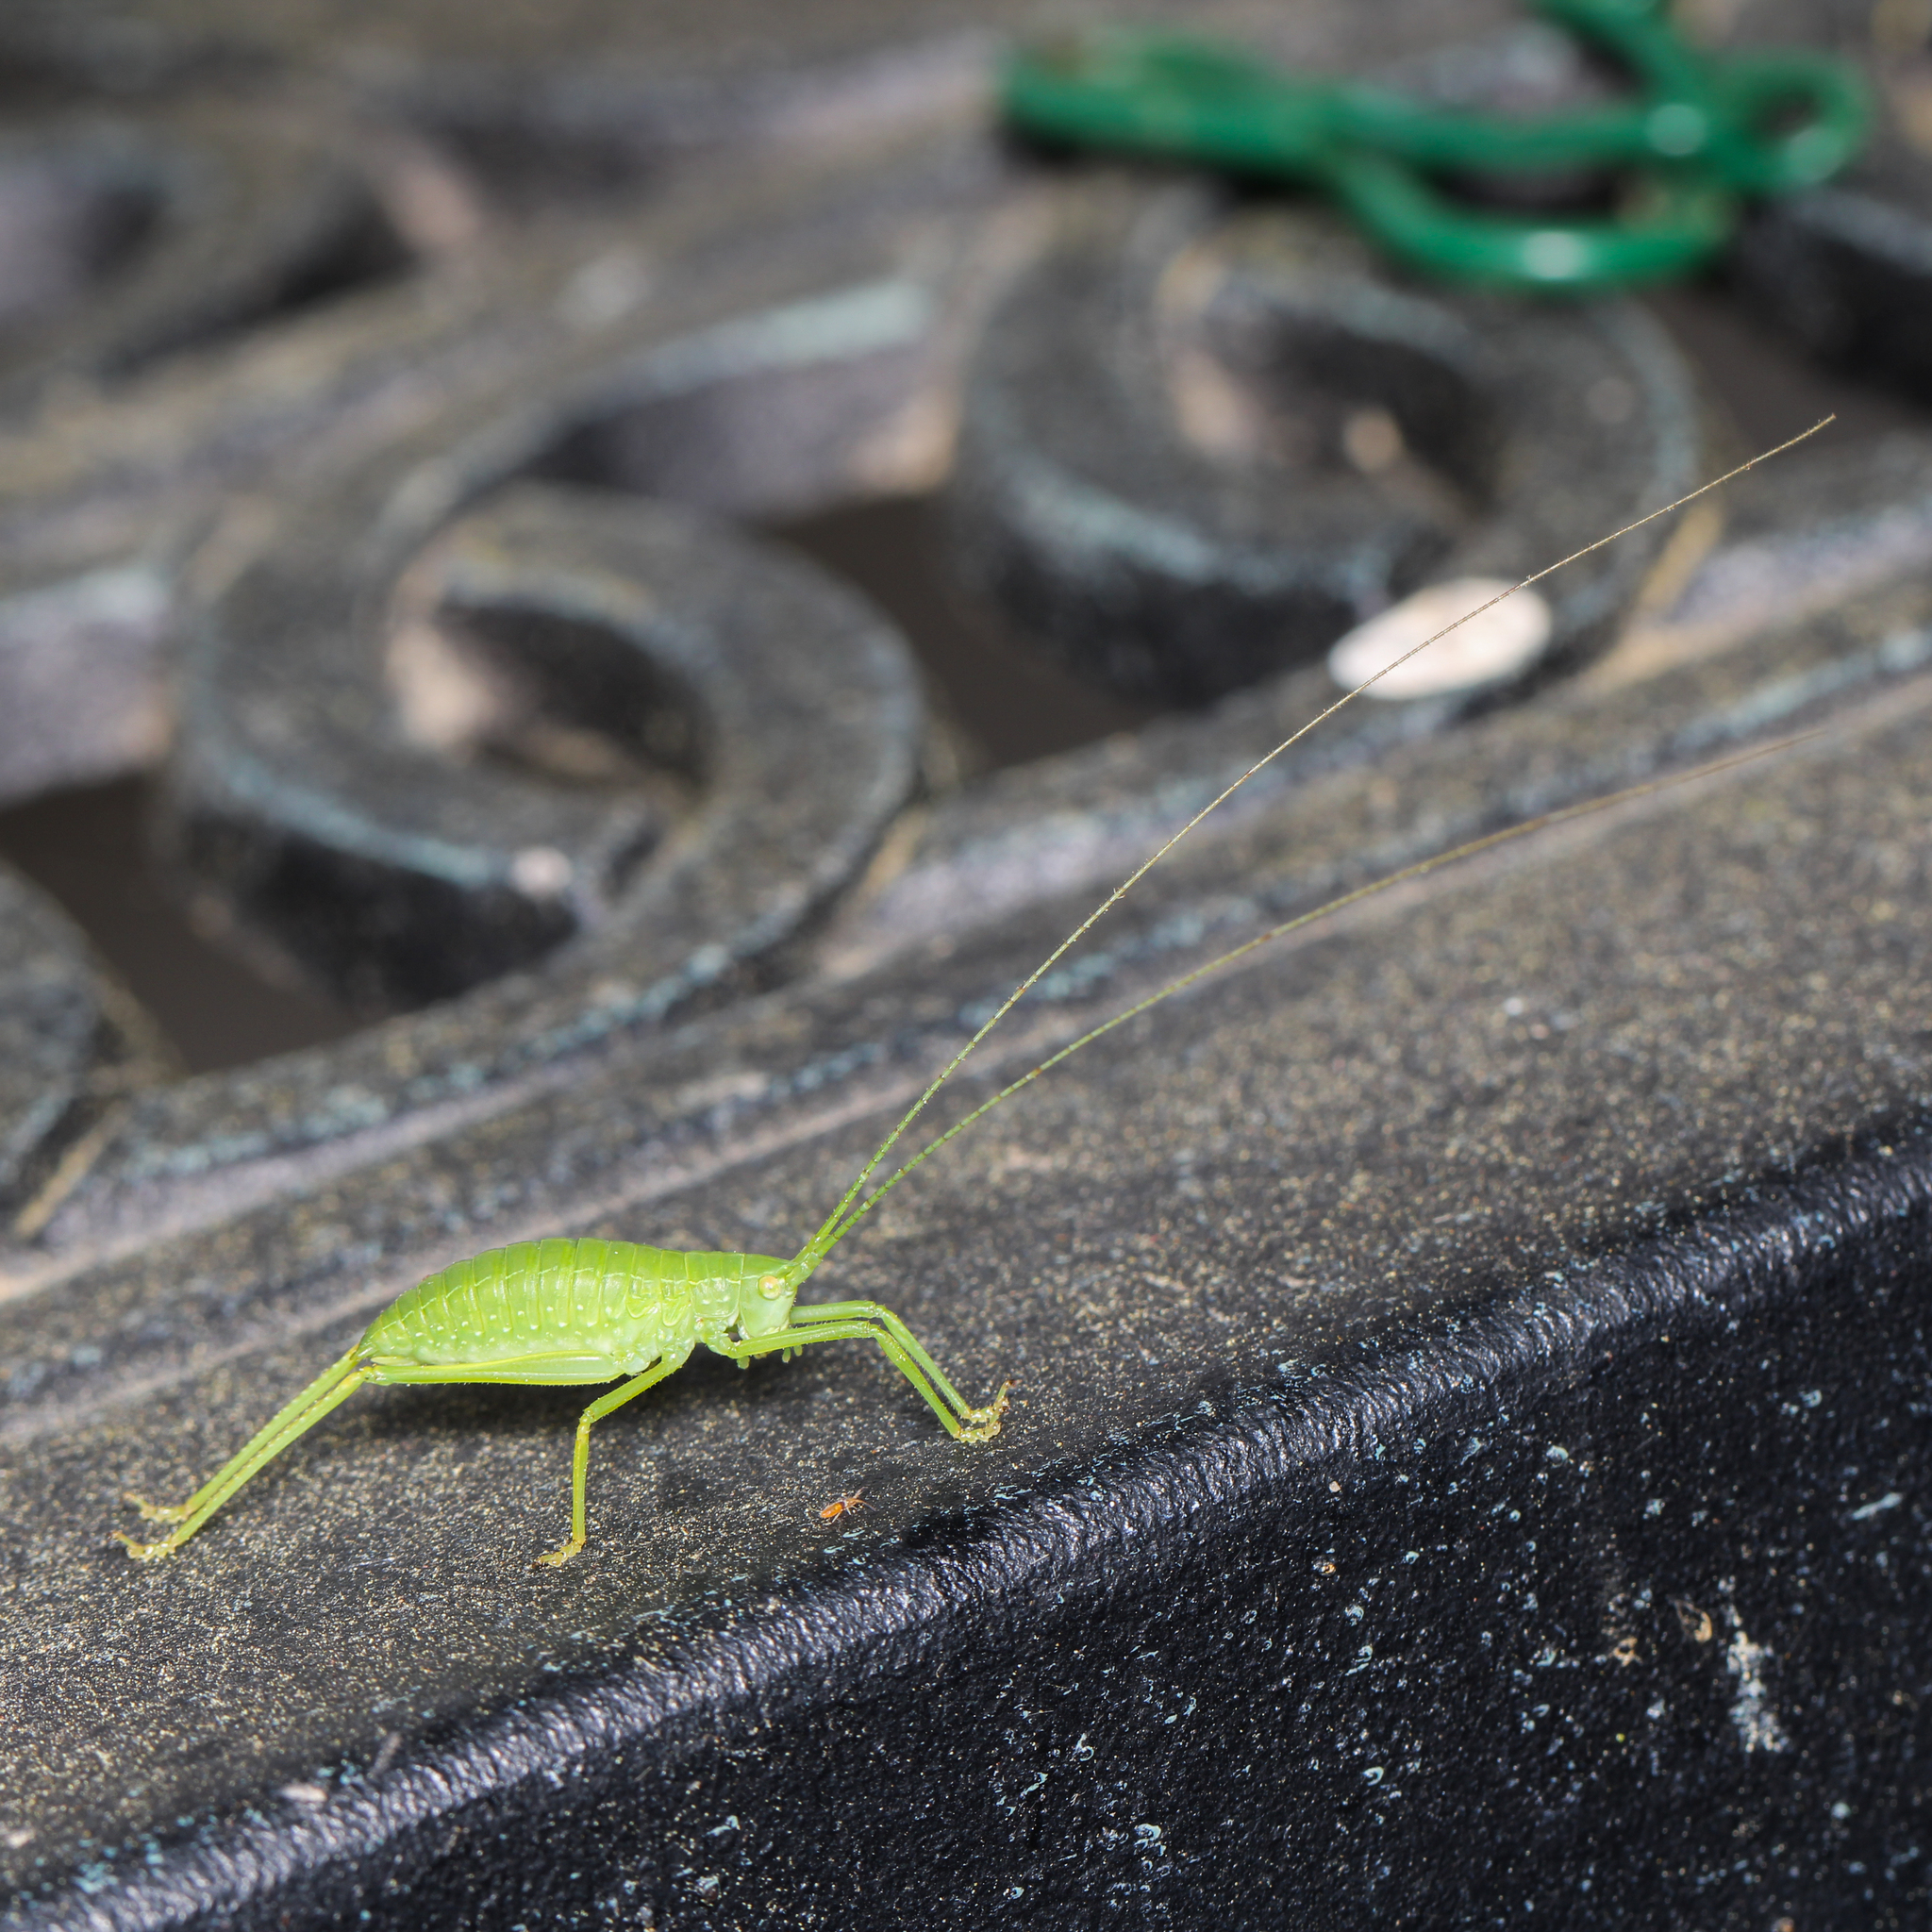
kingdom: Animalia
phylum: Arthropoda
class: Insecta
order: Orthoptera
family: Tettigoniidae
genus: Pterophylla
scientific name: Pterophylla camellifolia
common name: Common true katydid
